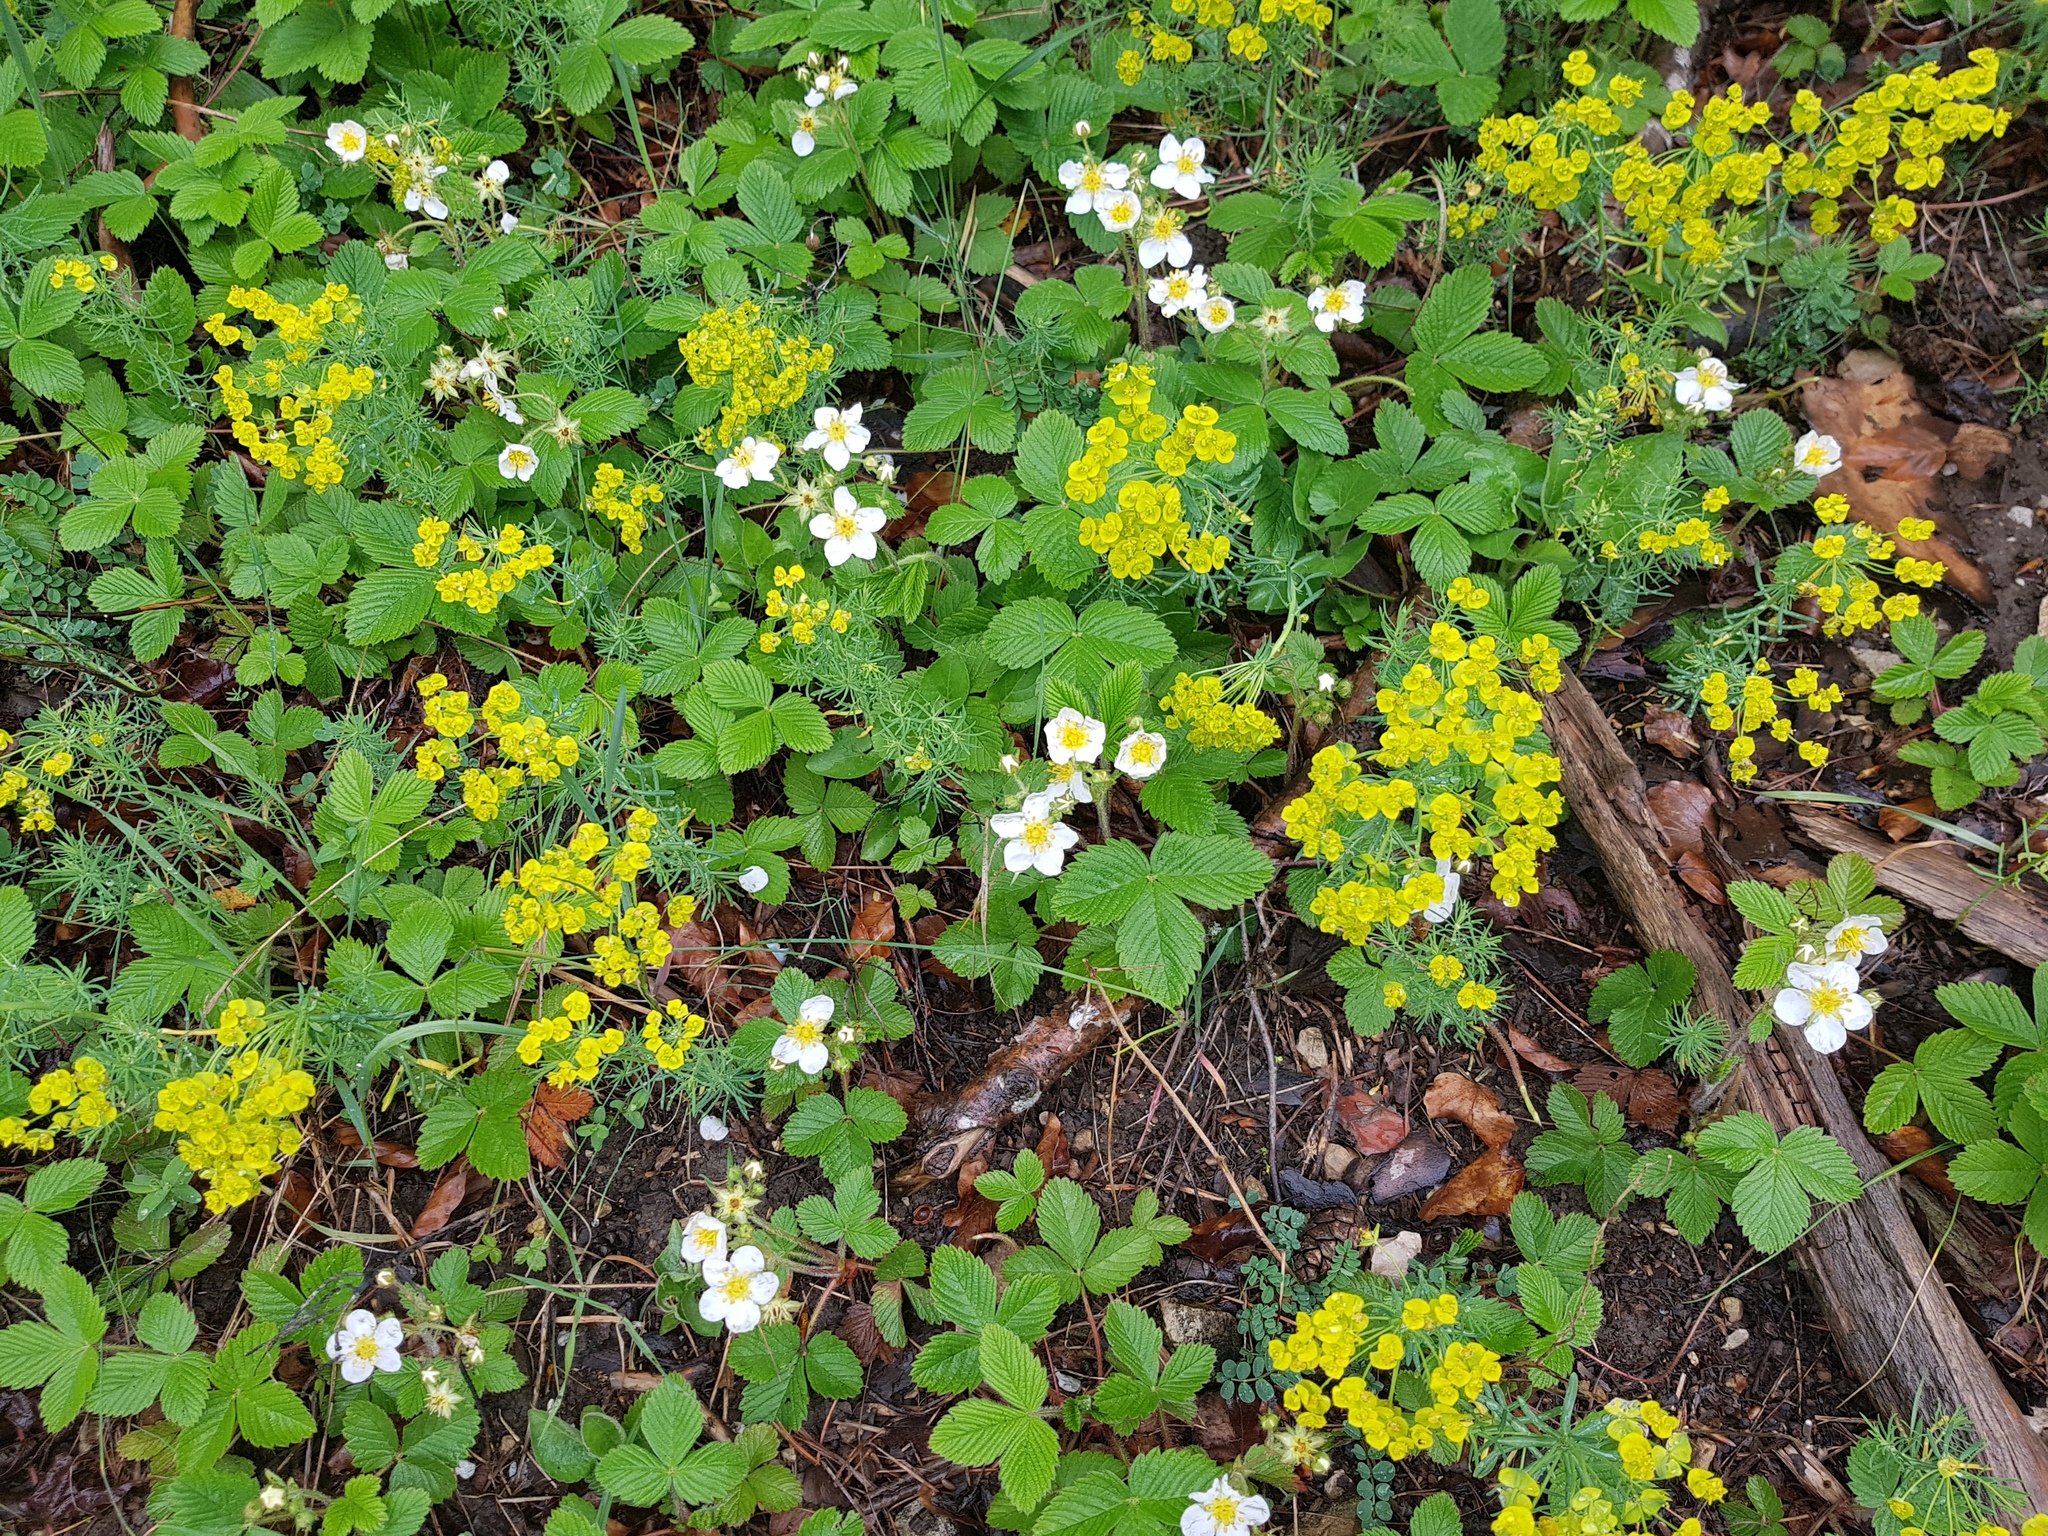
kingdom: Plantae
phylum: Tracheophyta
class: Magnoliopsida
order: Rosales
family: Rosaceae
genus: Fragaria
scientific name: Fragaria vesca
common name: Wild strawberry
